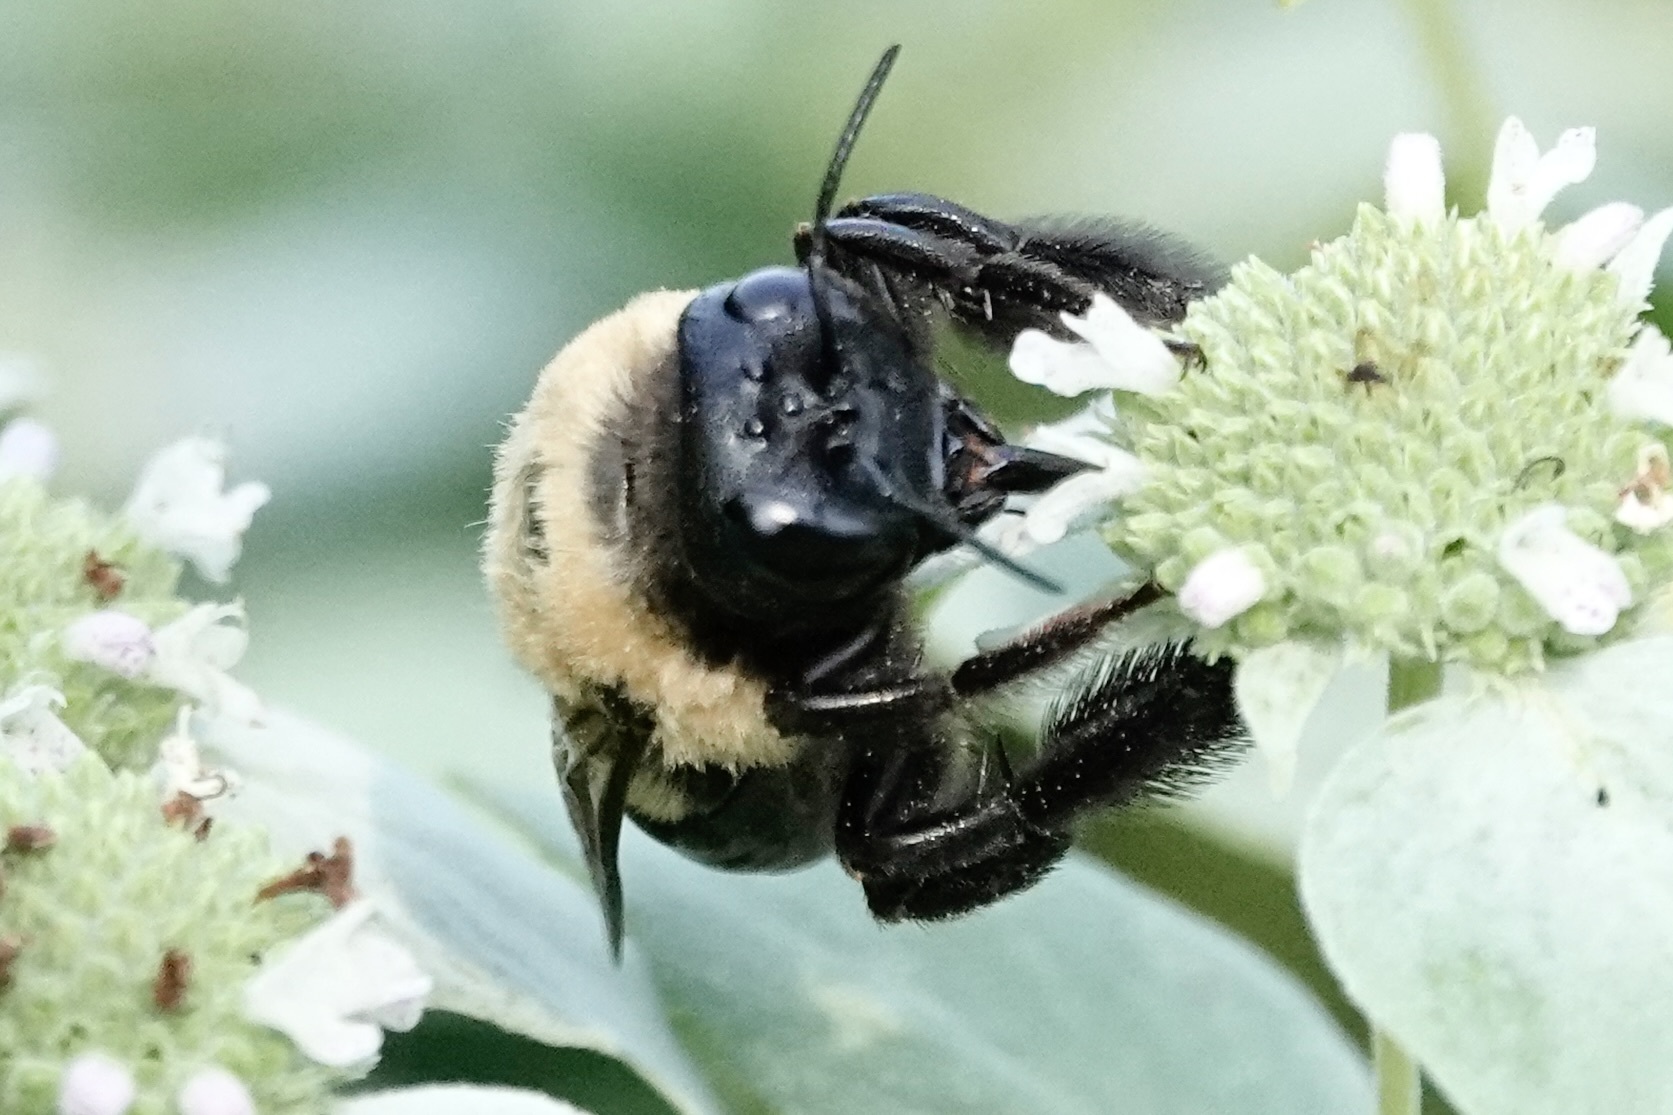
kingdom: Animalia
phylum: Arthropoda
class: Insecta
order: Hymenoptera
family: Apidae
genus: Xylocopa
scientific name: Xylocopa virginica
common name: Carpenter bee
